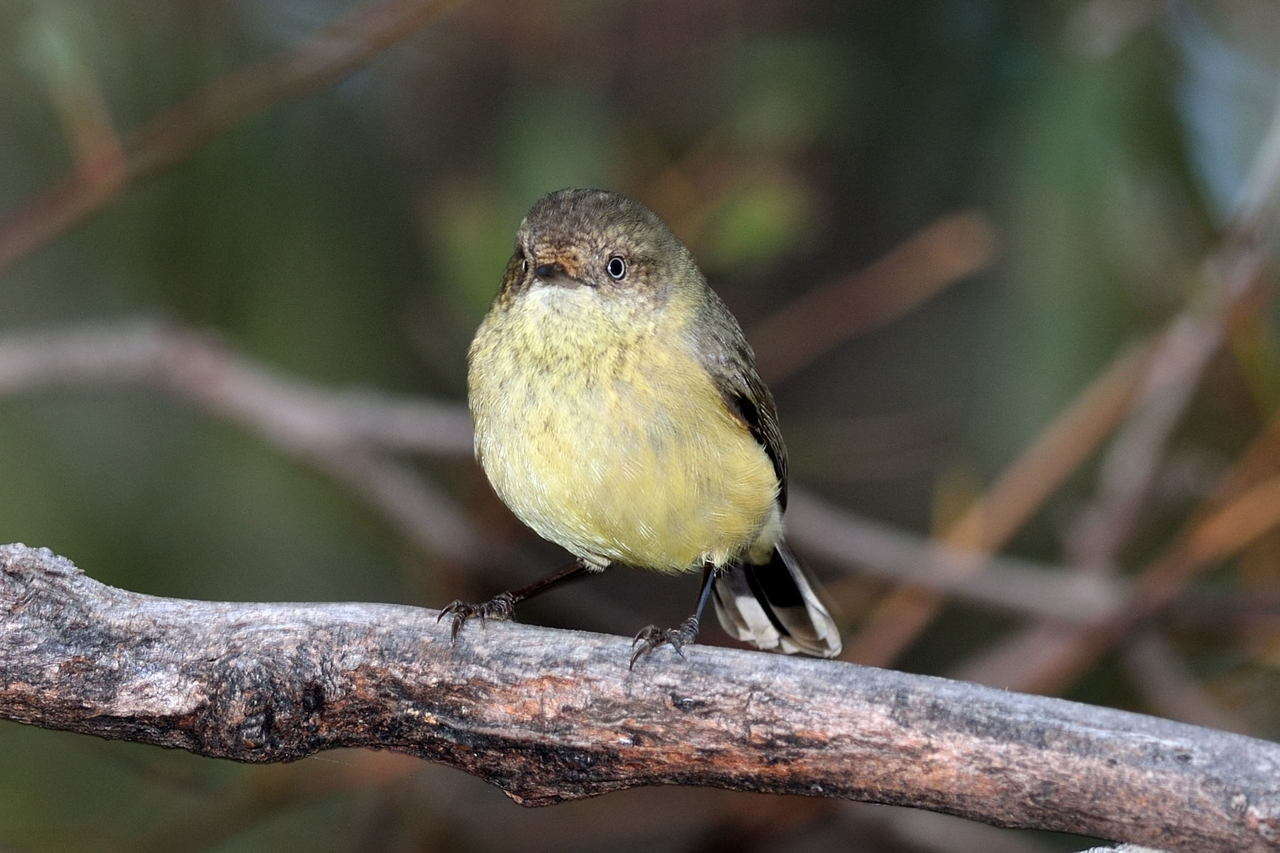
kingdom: Animalia
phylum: Chordata
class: Aves
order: Passeriformes
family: Acanthizidae
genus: Acanthiza
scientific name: Acanthiza reguloides
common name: Buff-rumped thornbill
